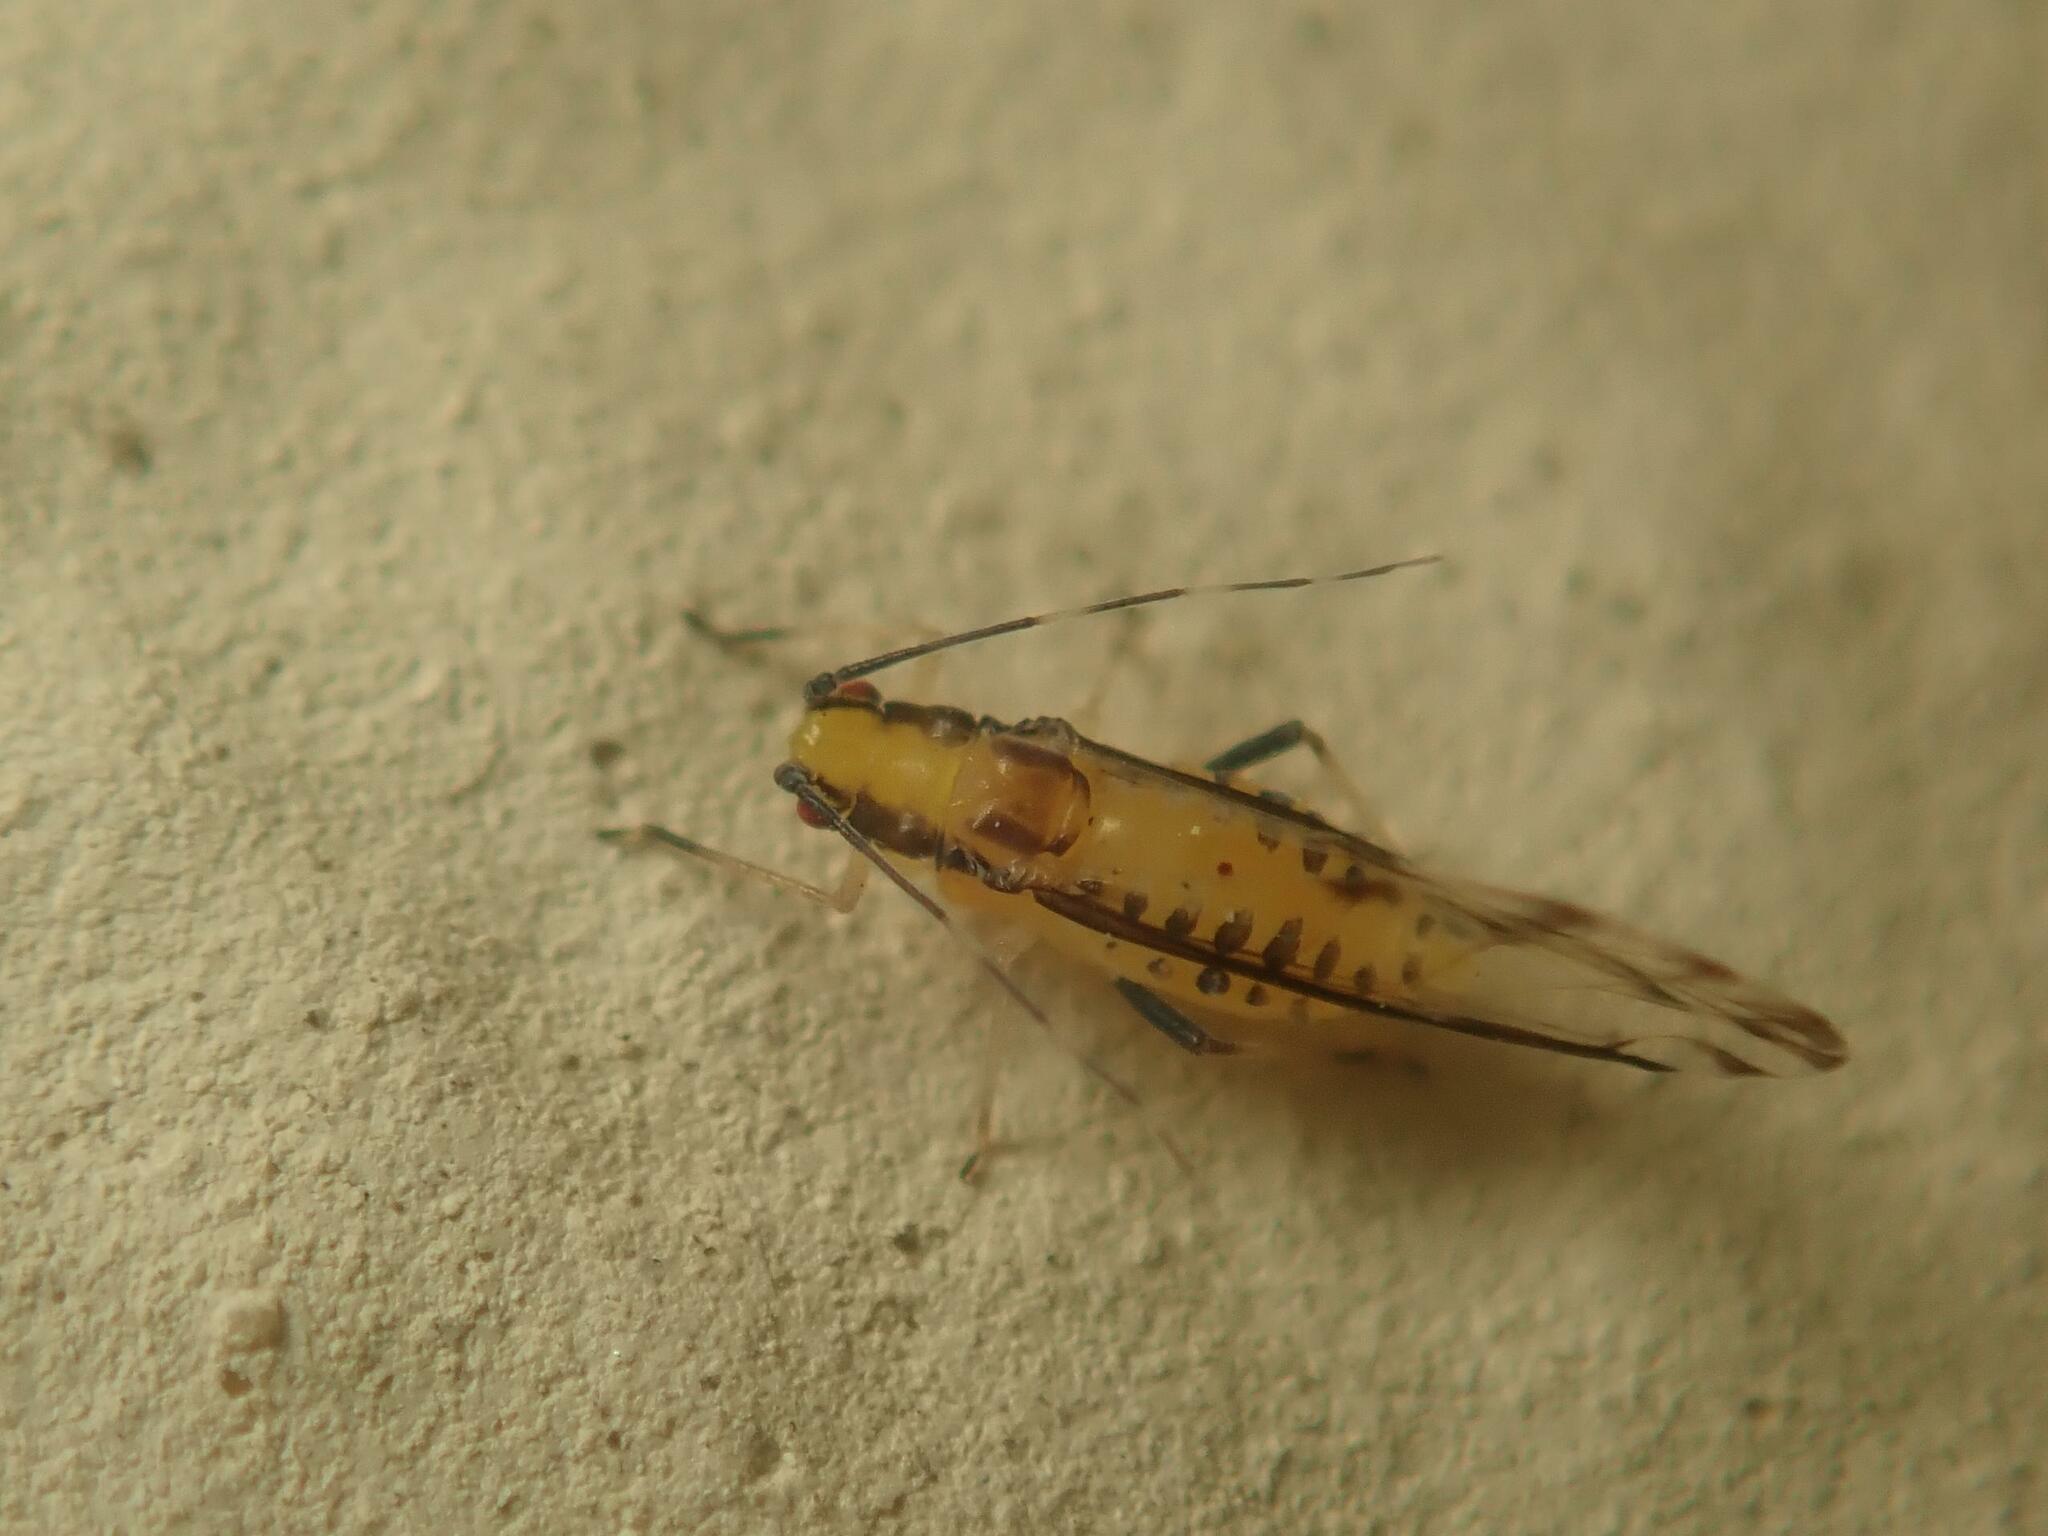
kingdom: Animalia
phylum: Arthropoda
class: Insecta
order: Hemiptera
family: Aphididae
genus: Eucallipterus
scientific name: Eucallipterus tiliae
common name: Aphid
